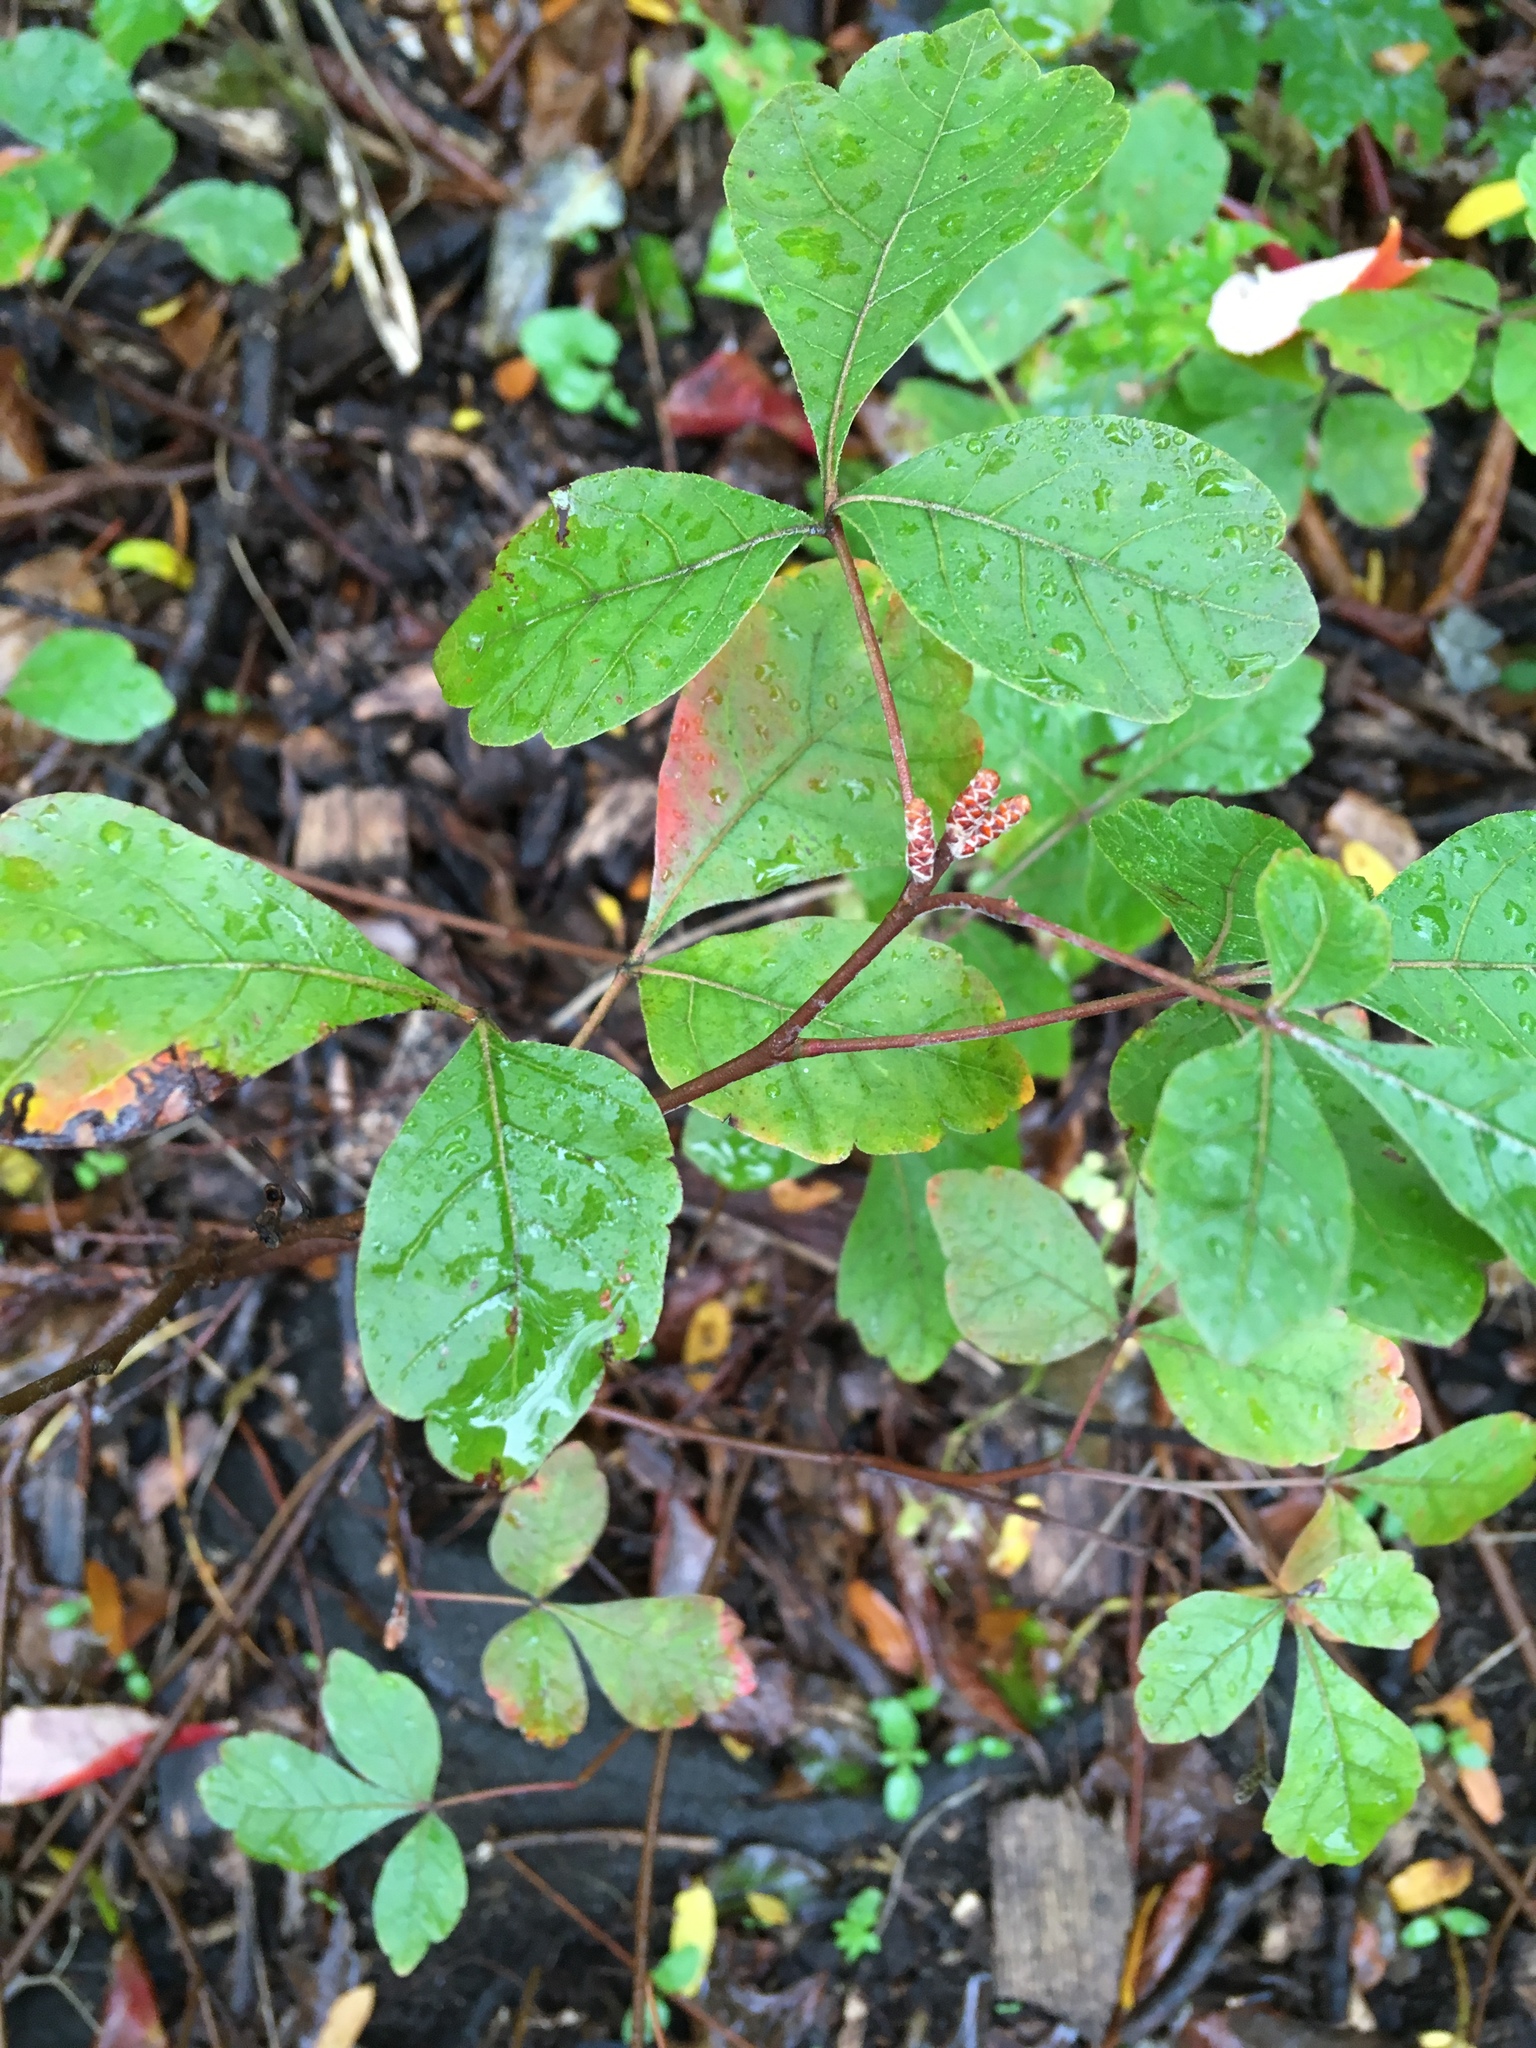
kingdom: Plantae
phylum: Tracheophyta
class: Magnoliopsida
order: Sapindales
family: Anacardiaceae
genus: Rhus
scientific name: Rhus aromatica
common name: Aromatic sumac
